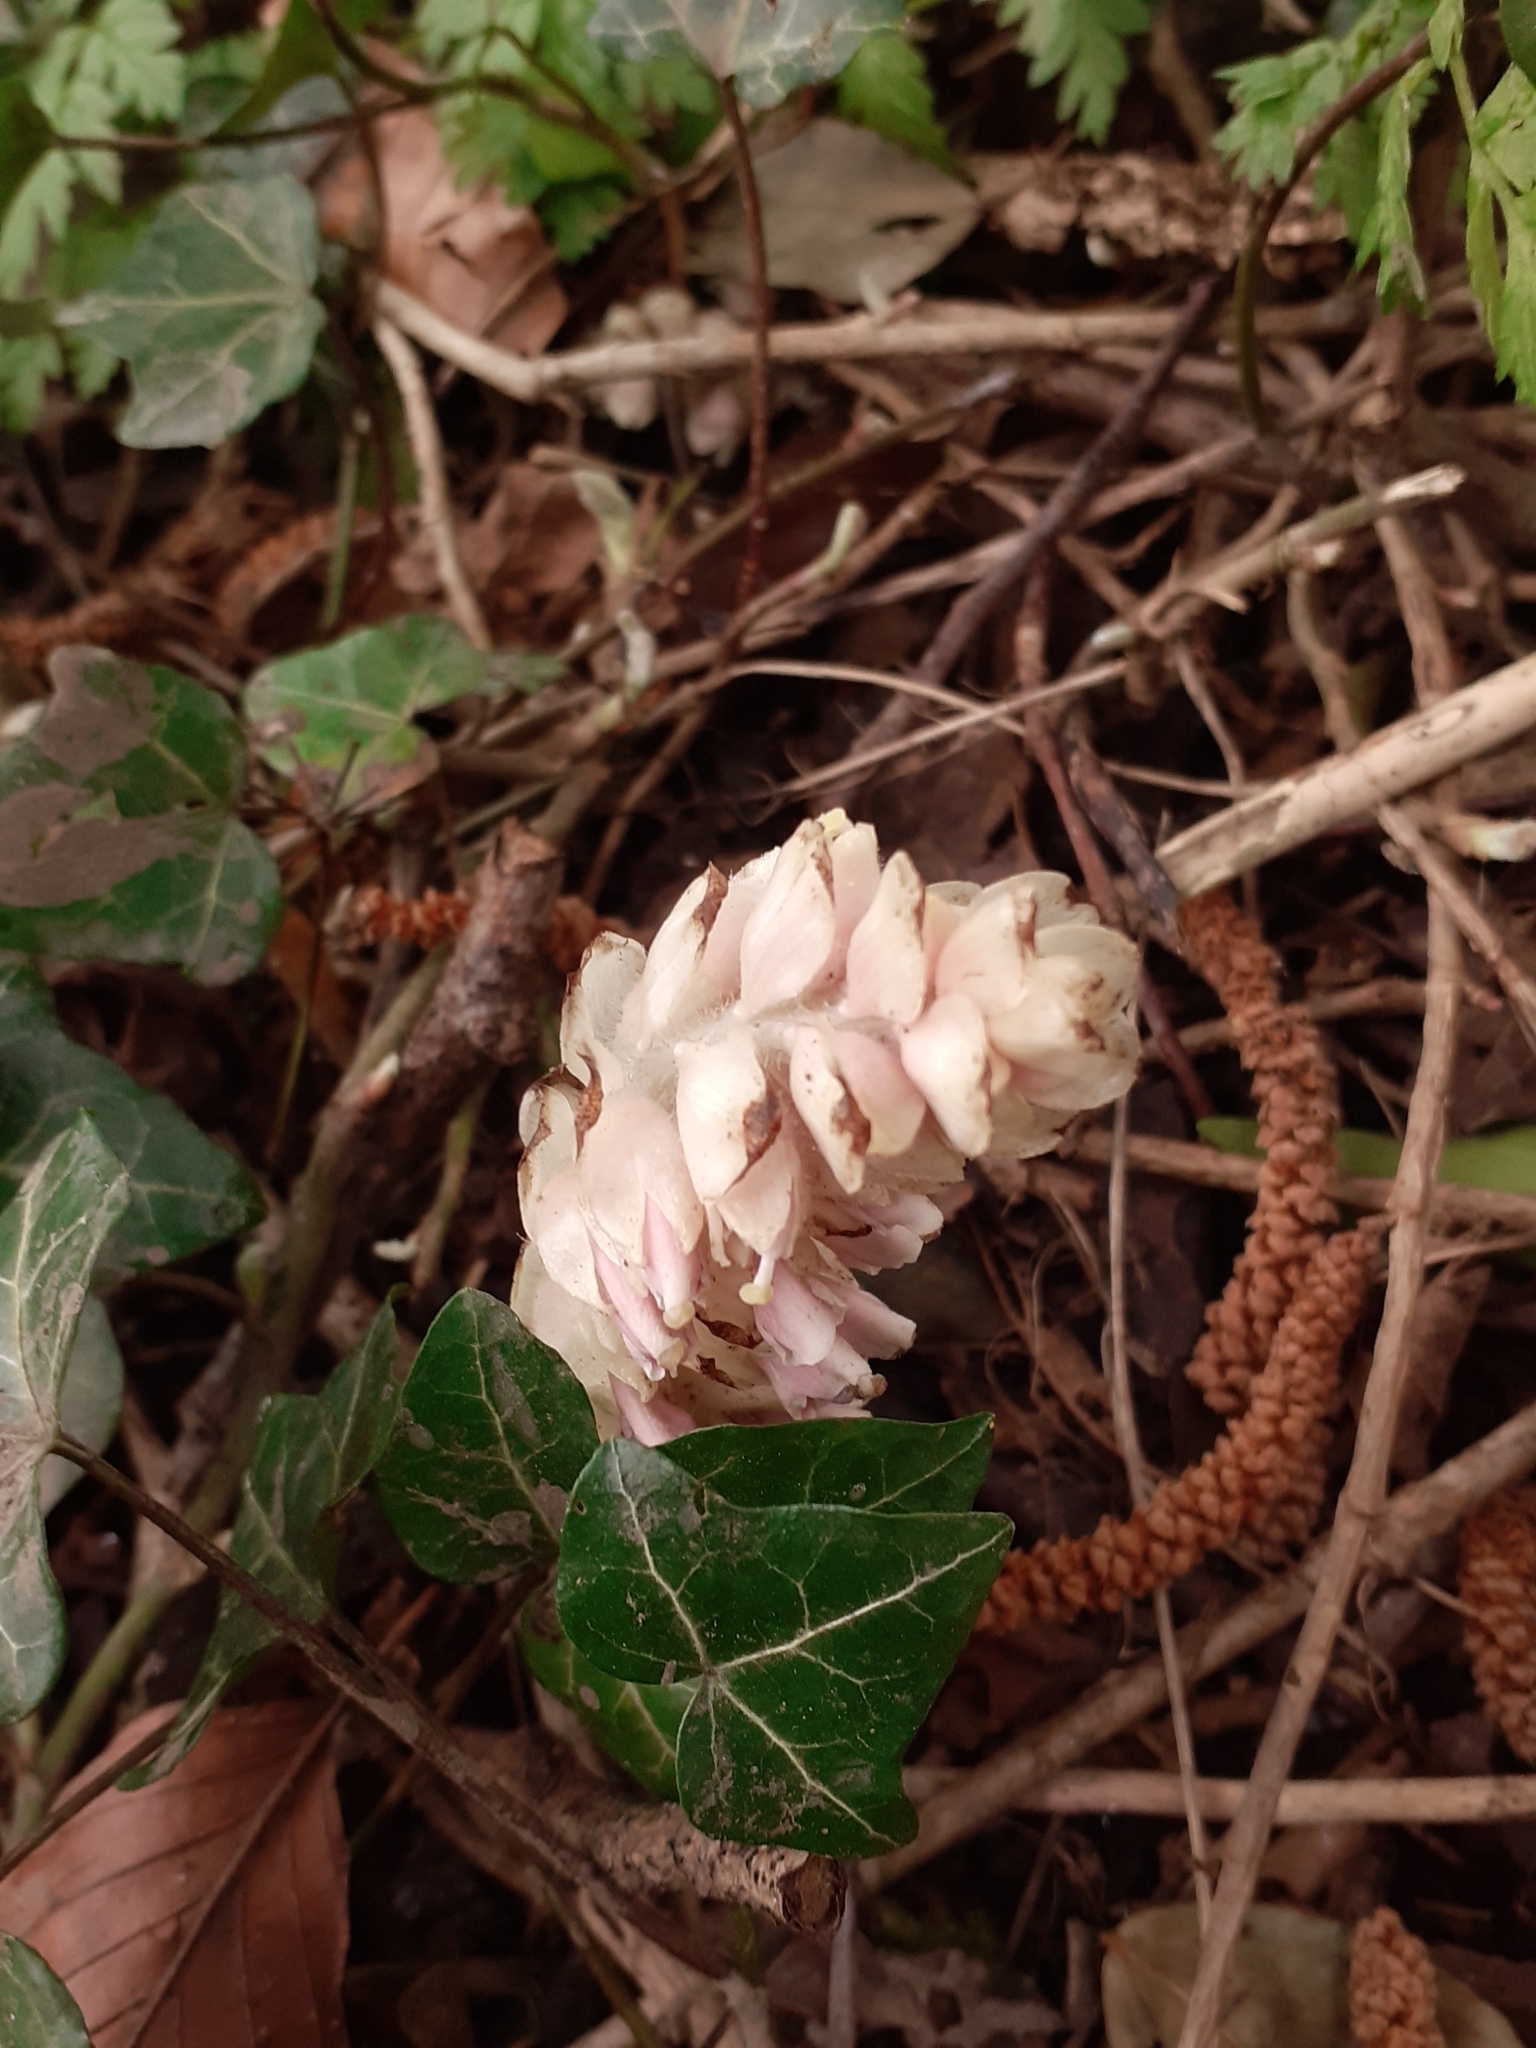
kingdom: Plantae
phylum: Tracheophyta
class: Magnoliopsida
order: Lamiales
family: Orobanchaceae
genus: Lathraea
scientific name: Lathraea squamaria
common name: Toothwort
